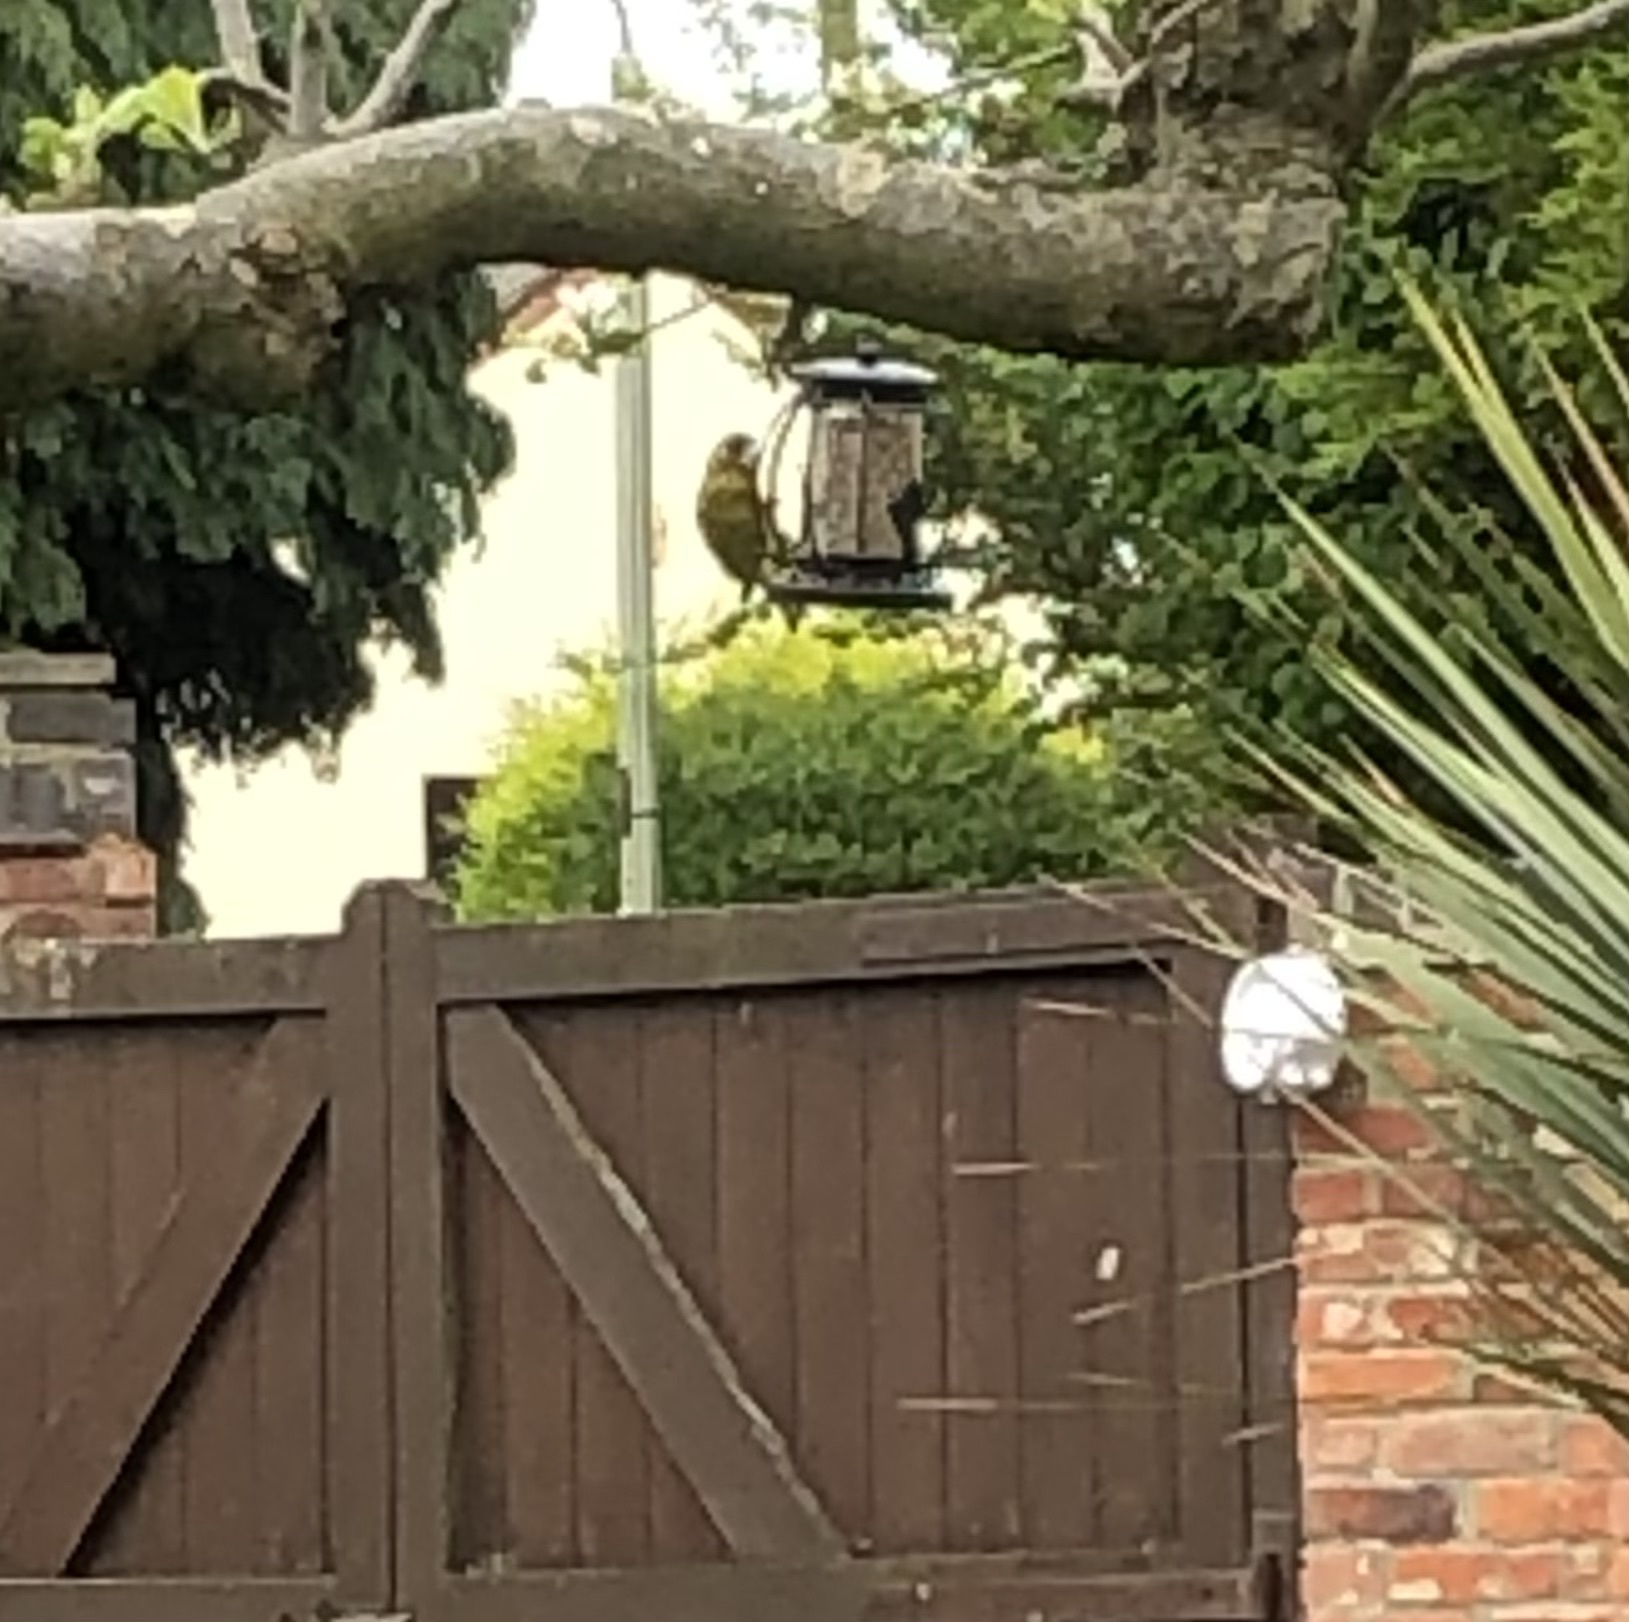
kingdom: Plantae
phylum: Tracheophyta
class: Liliopsida
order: Poales
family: Poaceae
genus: Chloris
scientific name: Chloris chloris
